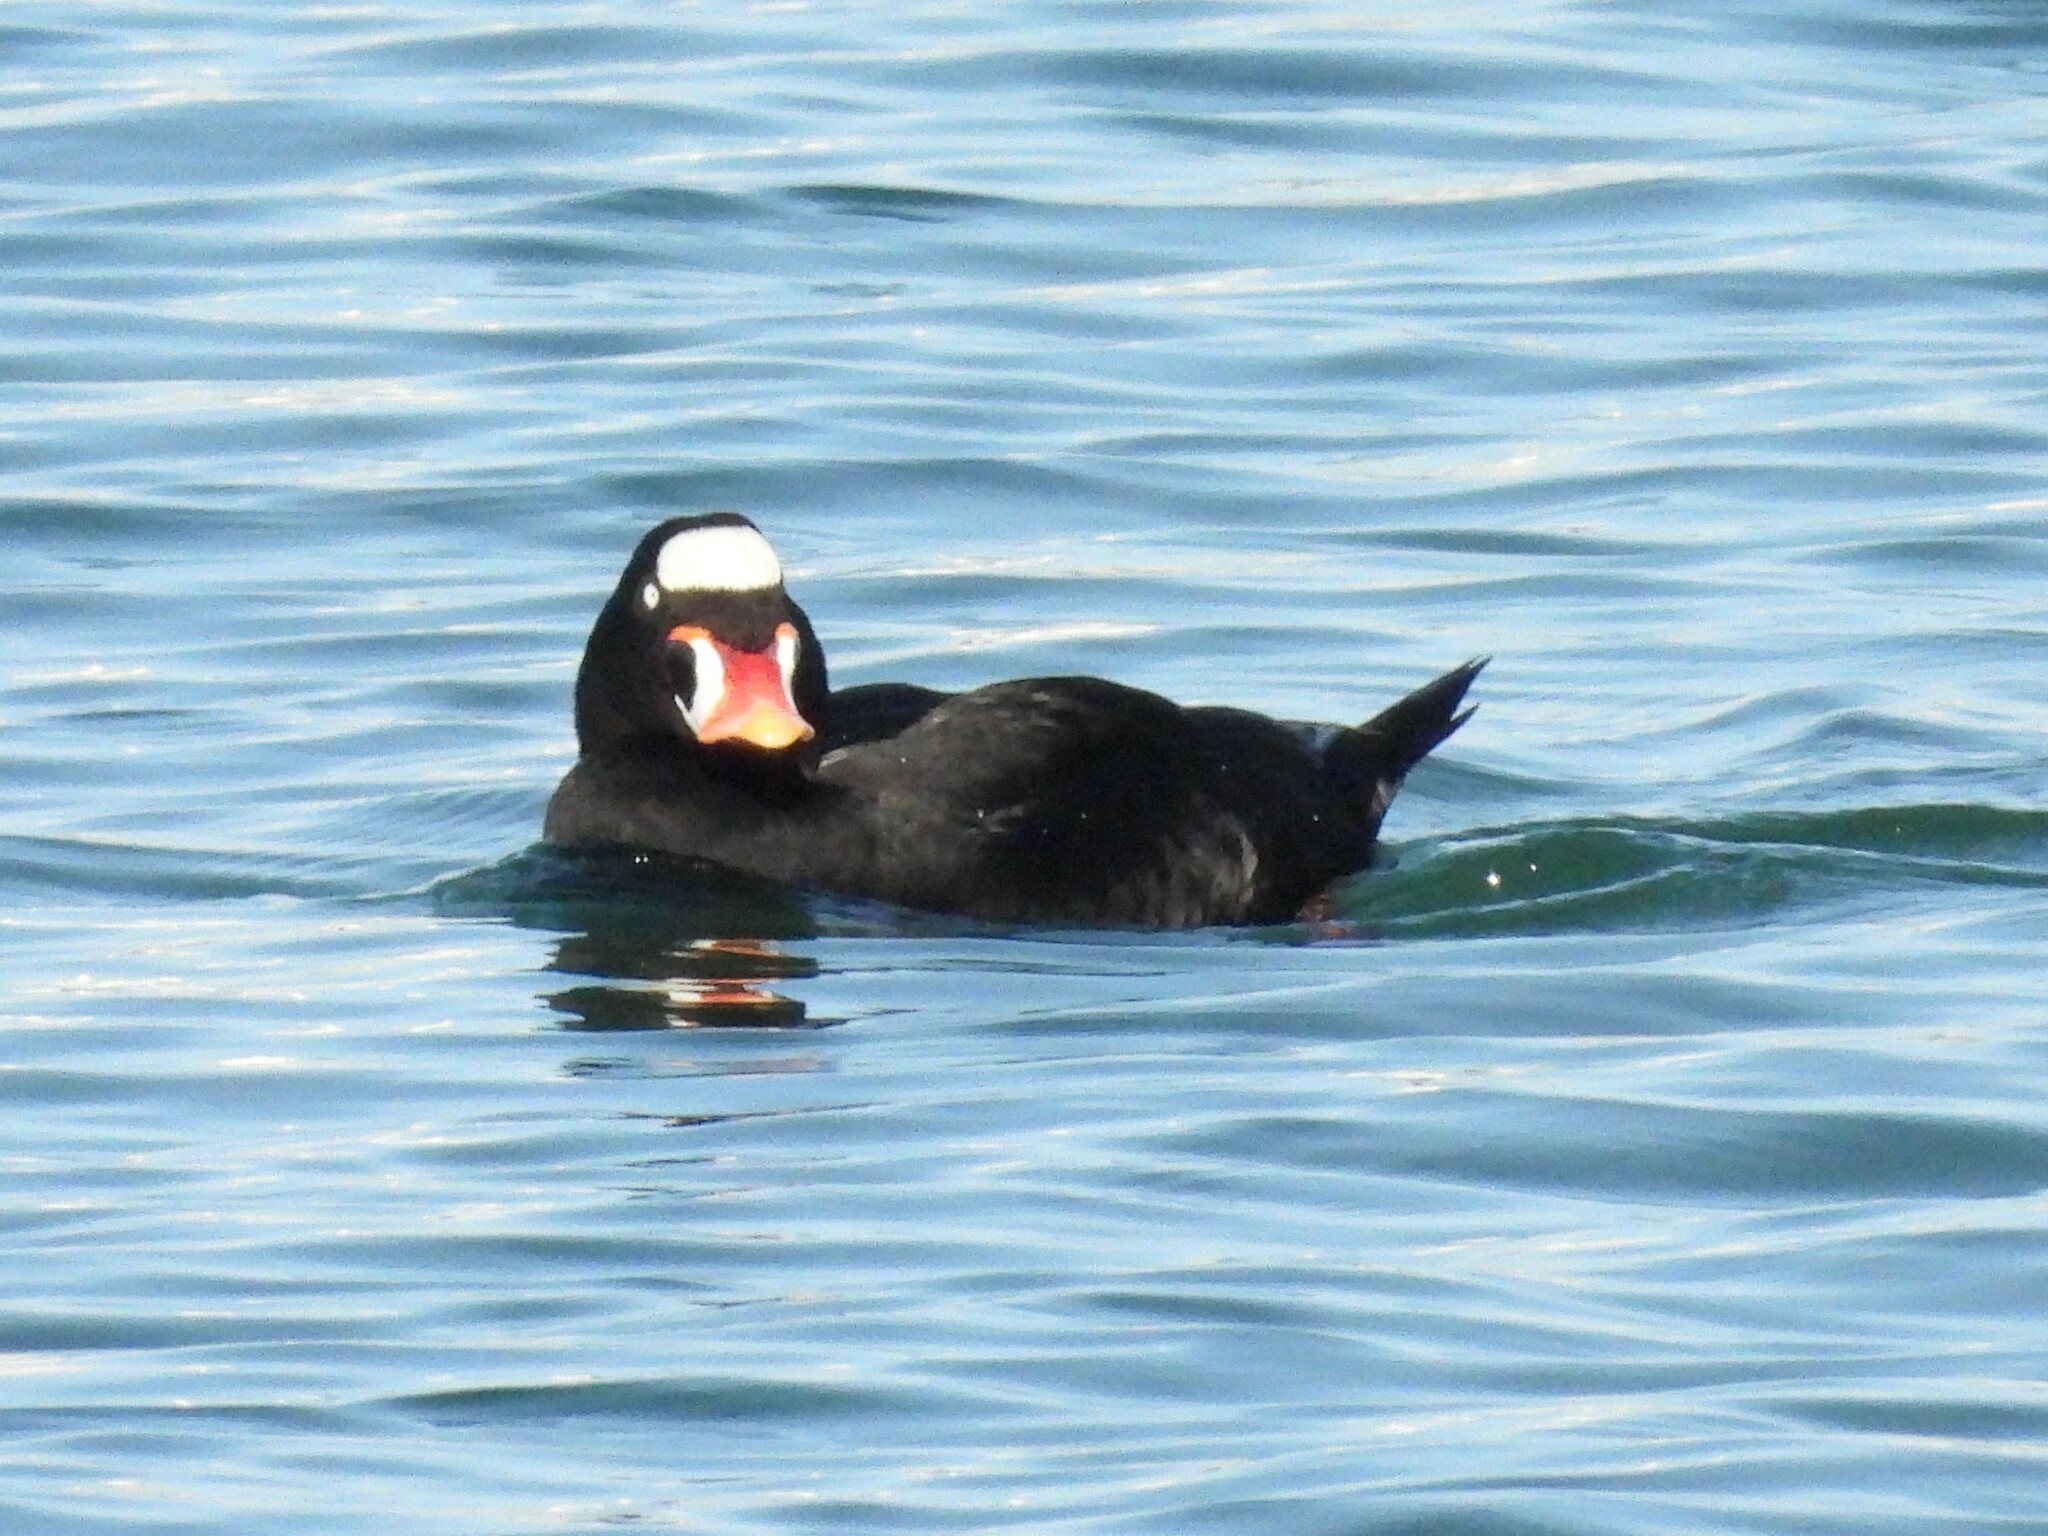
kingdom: Animalia
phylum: Chordata
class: Aves
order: Anseriformes
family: Anatidae
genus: Melanitta
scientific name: Melanitta perspicillata
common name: Surf scoter
